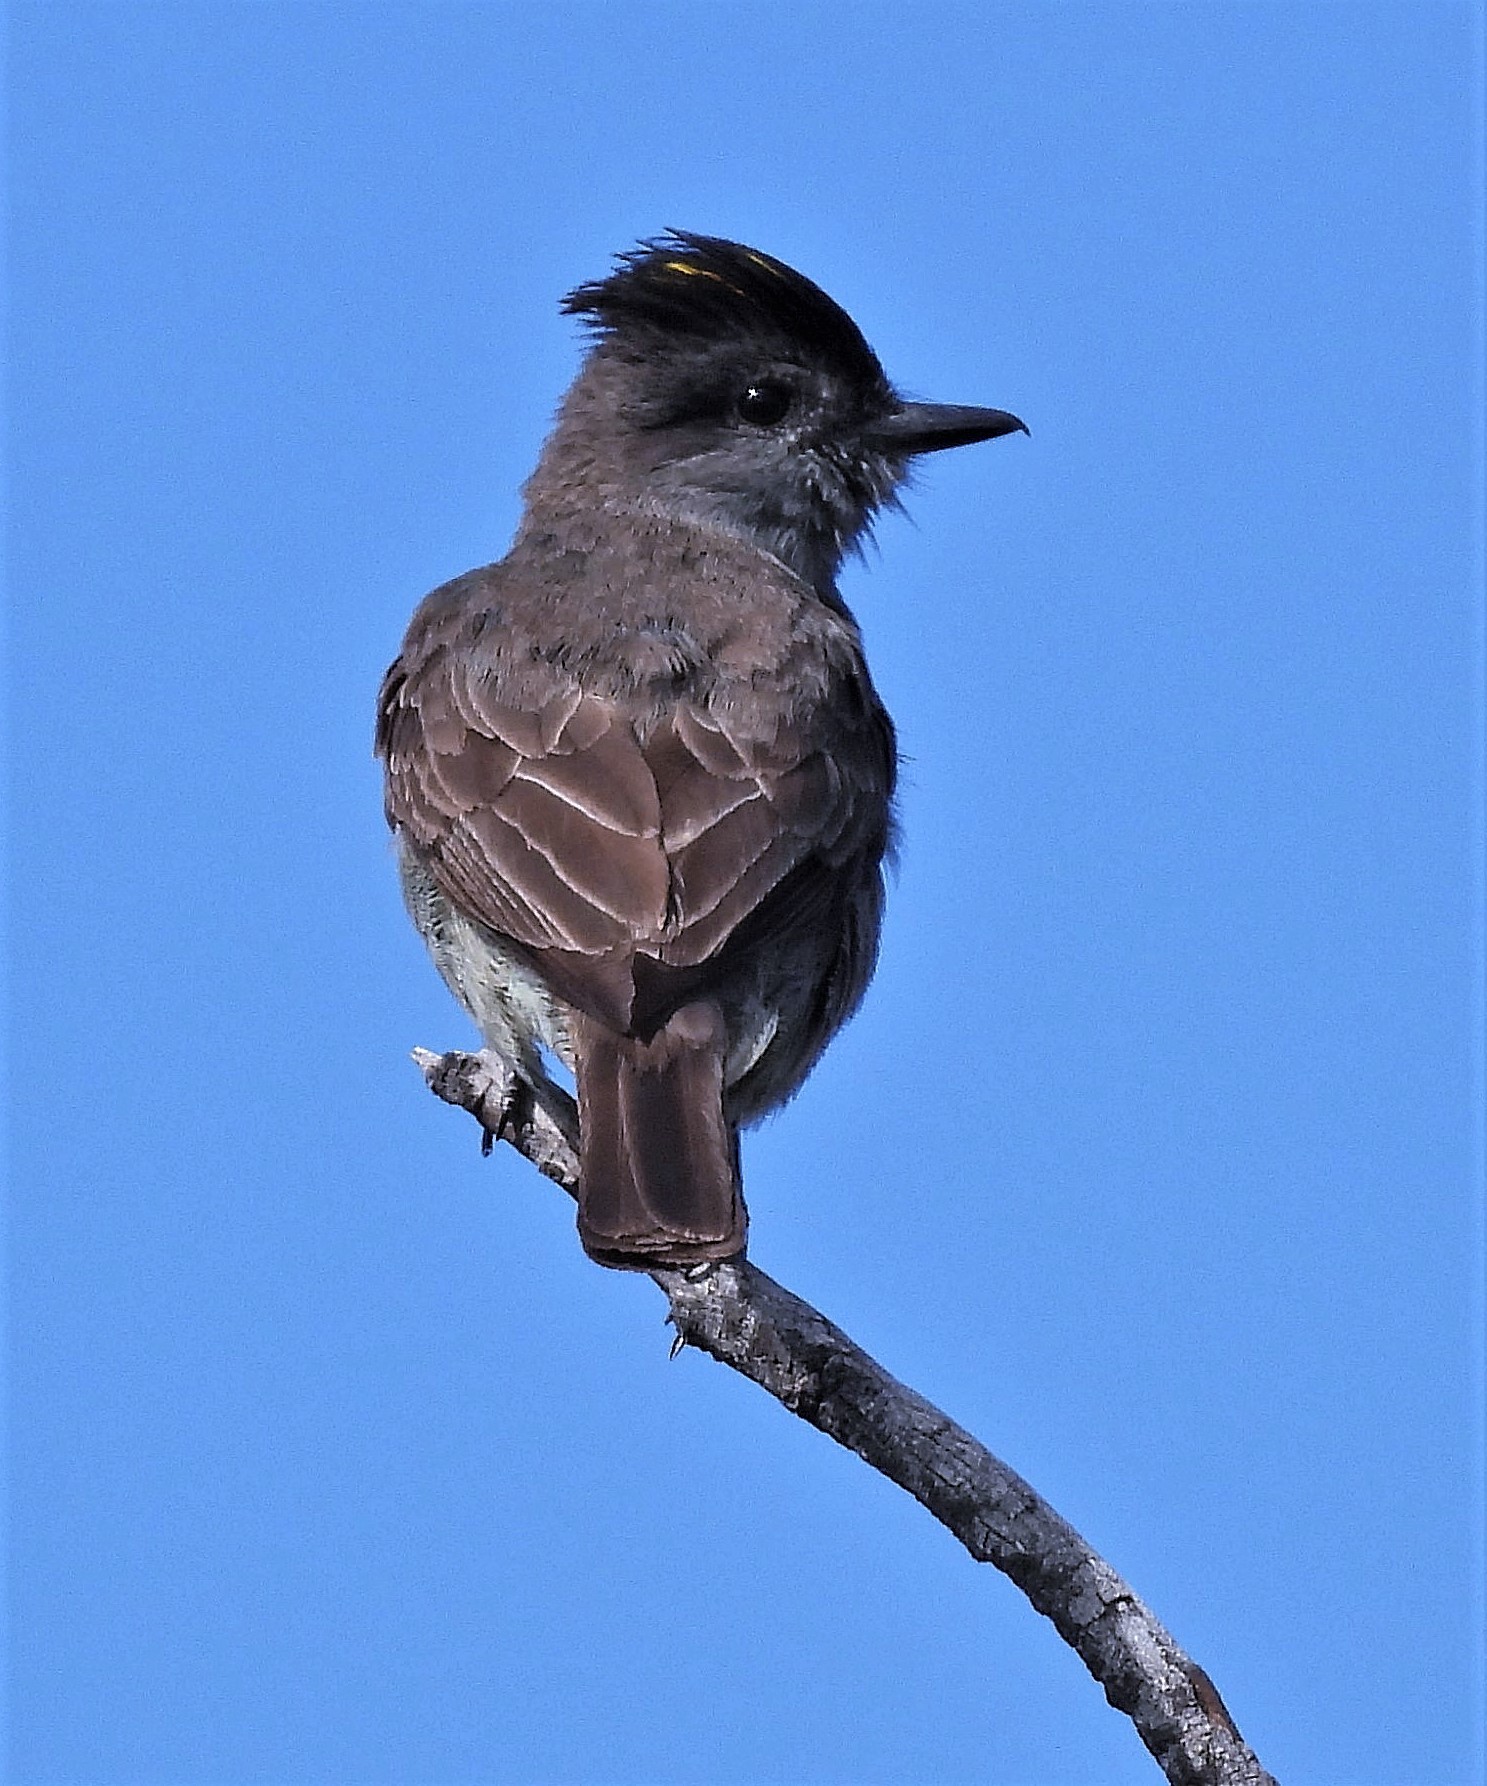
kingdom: Animalia
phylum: Chordata
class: Aves
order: Passeriformes
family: Tyrannidae
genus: Empidonomus
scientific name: Empidonomus aurantioatrocristatus
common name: Crowned slaty flycatcher
